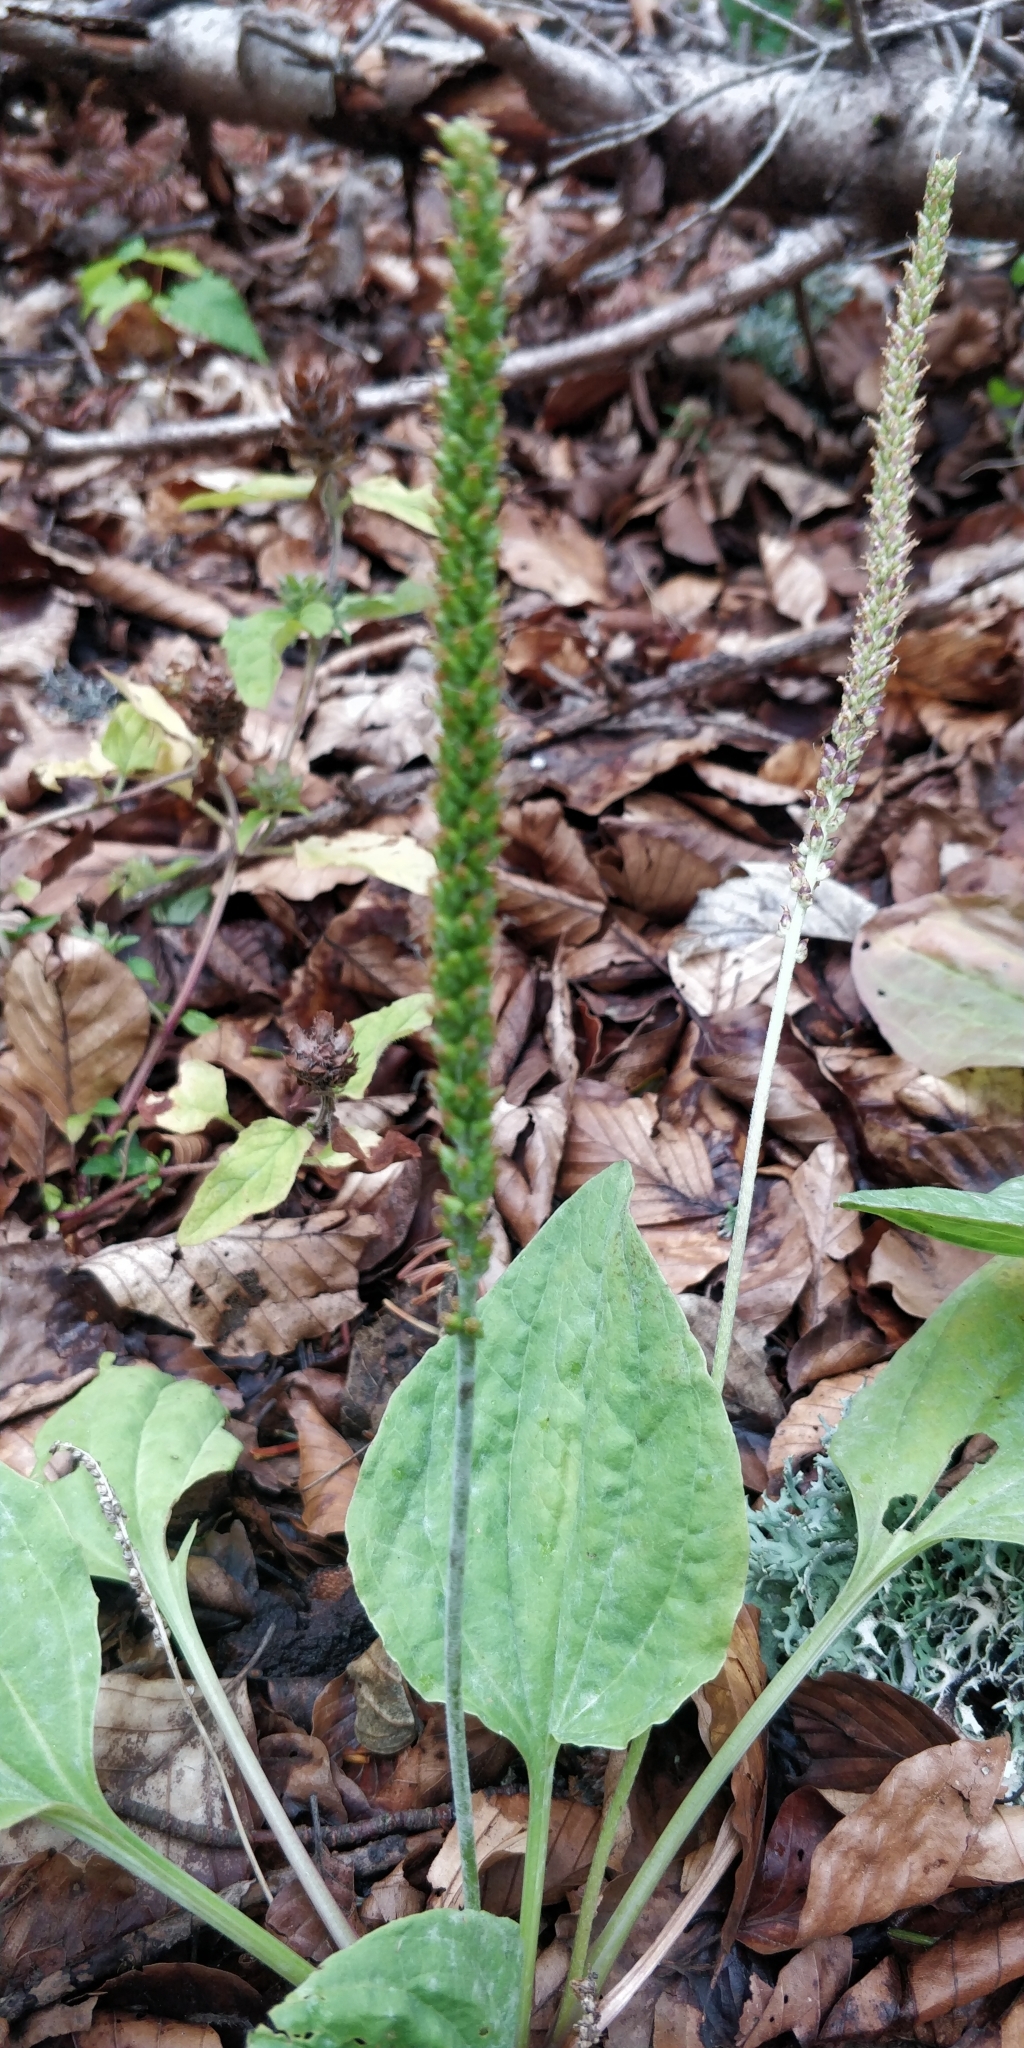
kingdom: Plantae
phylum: Tracheophyta
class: Magnoliopsida
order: Lamiales
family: Plantaginaceae
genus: Plantago
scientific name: Plantago major
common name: Common plantain
